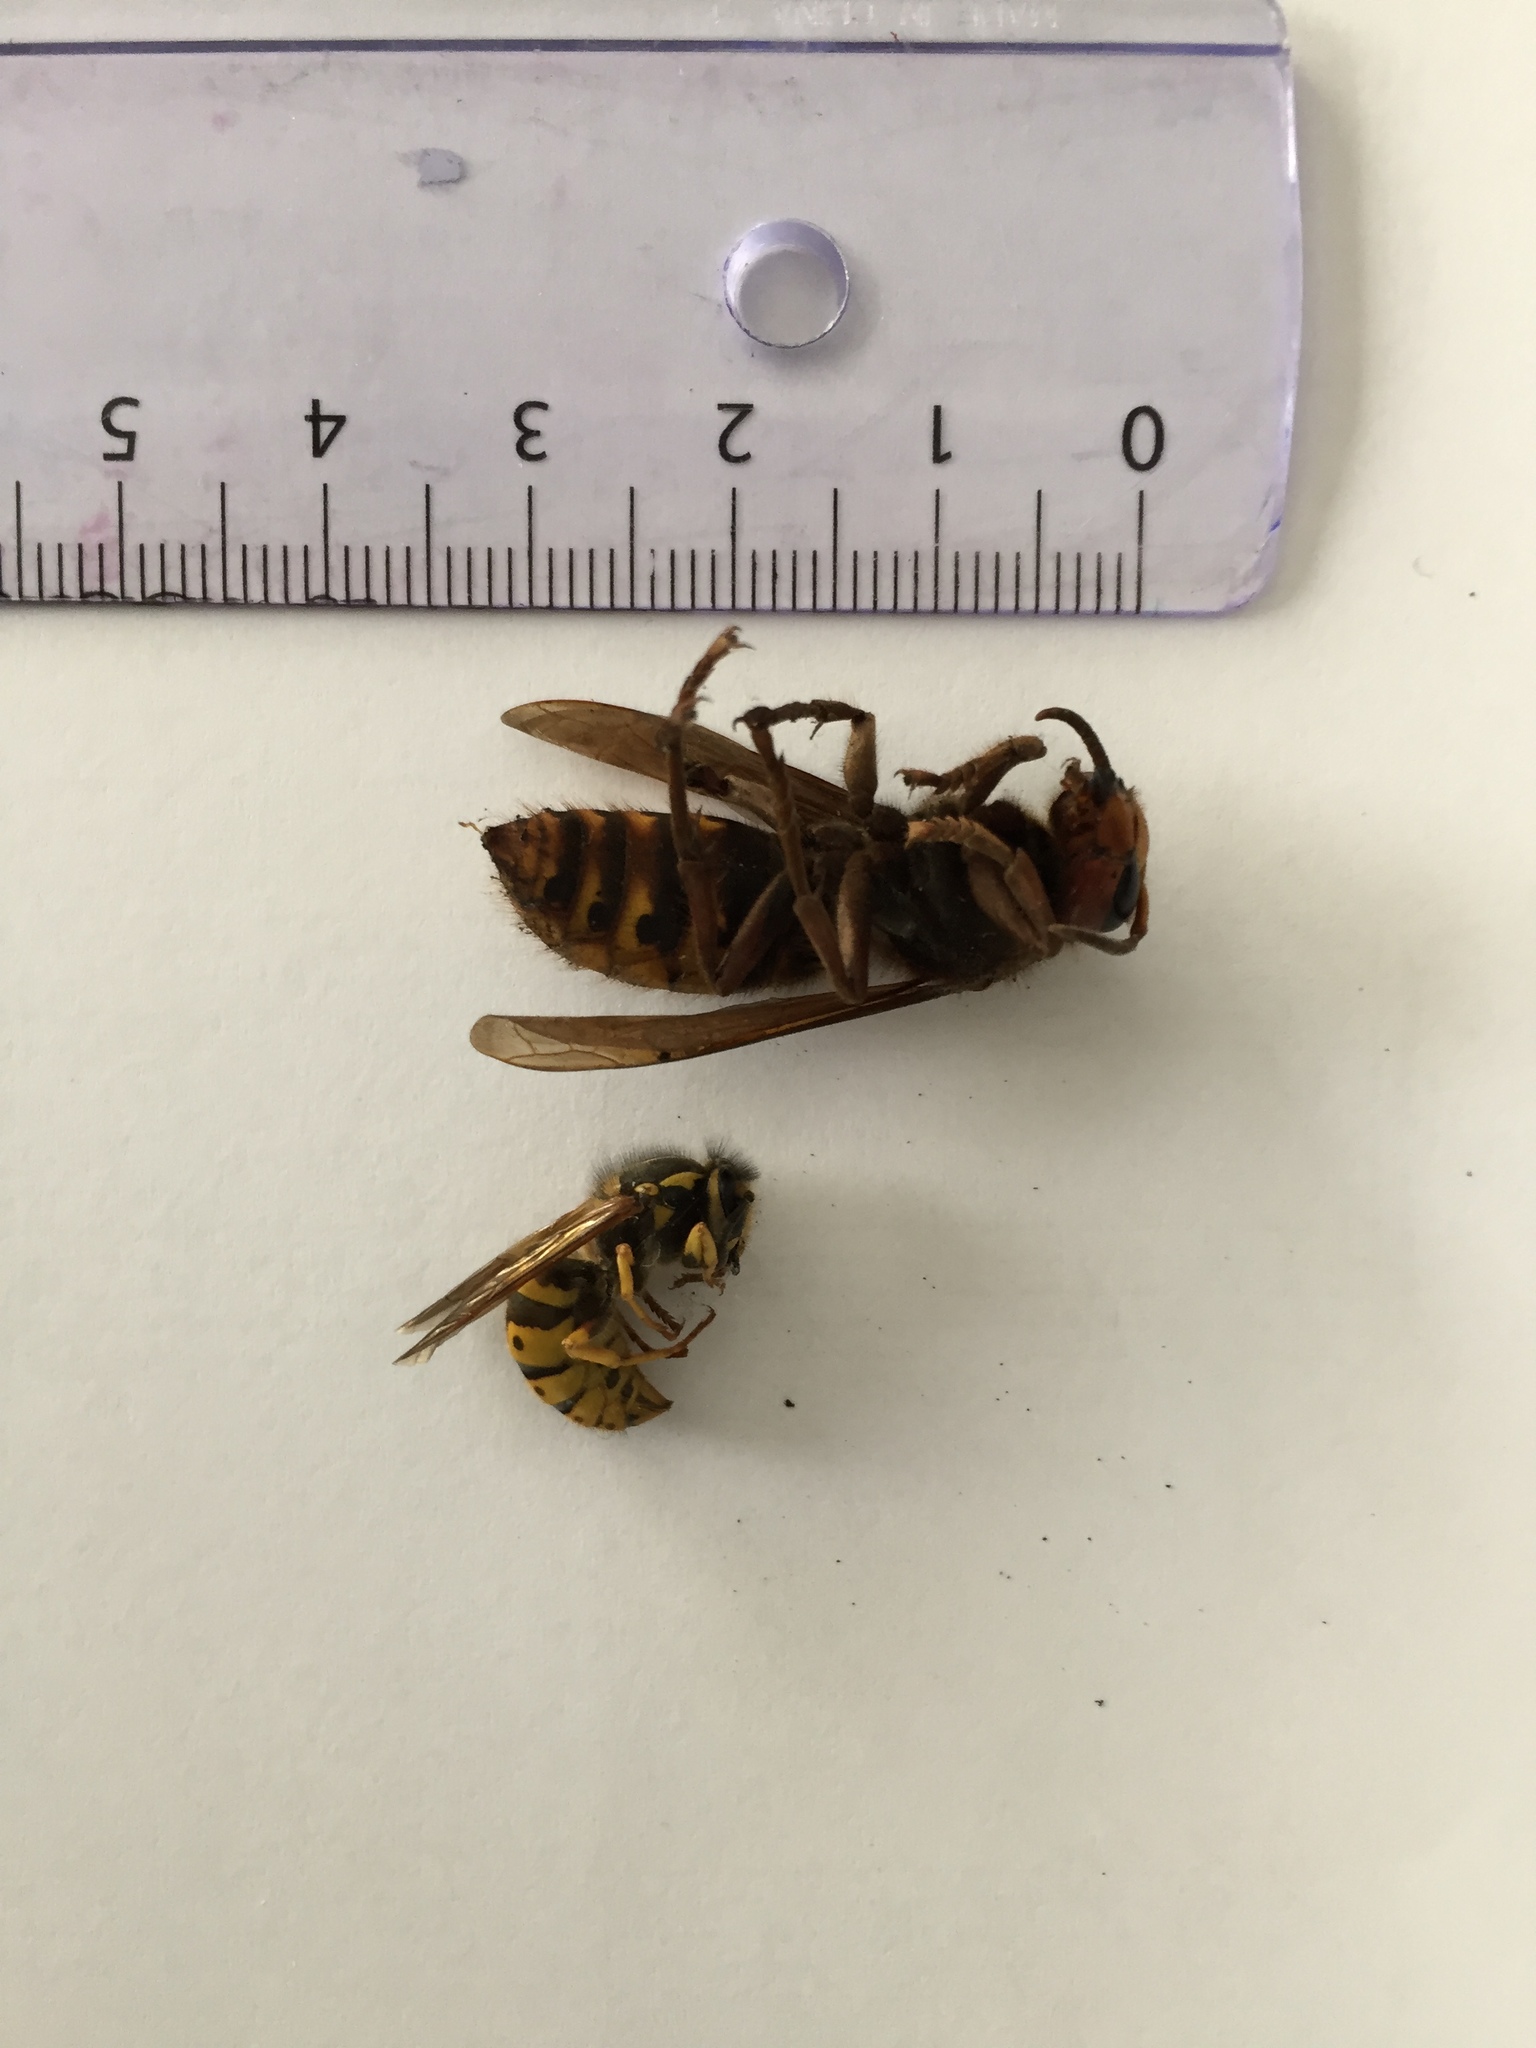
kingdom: Animalia
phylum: Arthropoda
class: Insecta
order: Hymenoptera
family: Vespidae
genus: Vespa
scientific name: Vespa crabro
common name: Hornet
